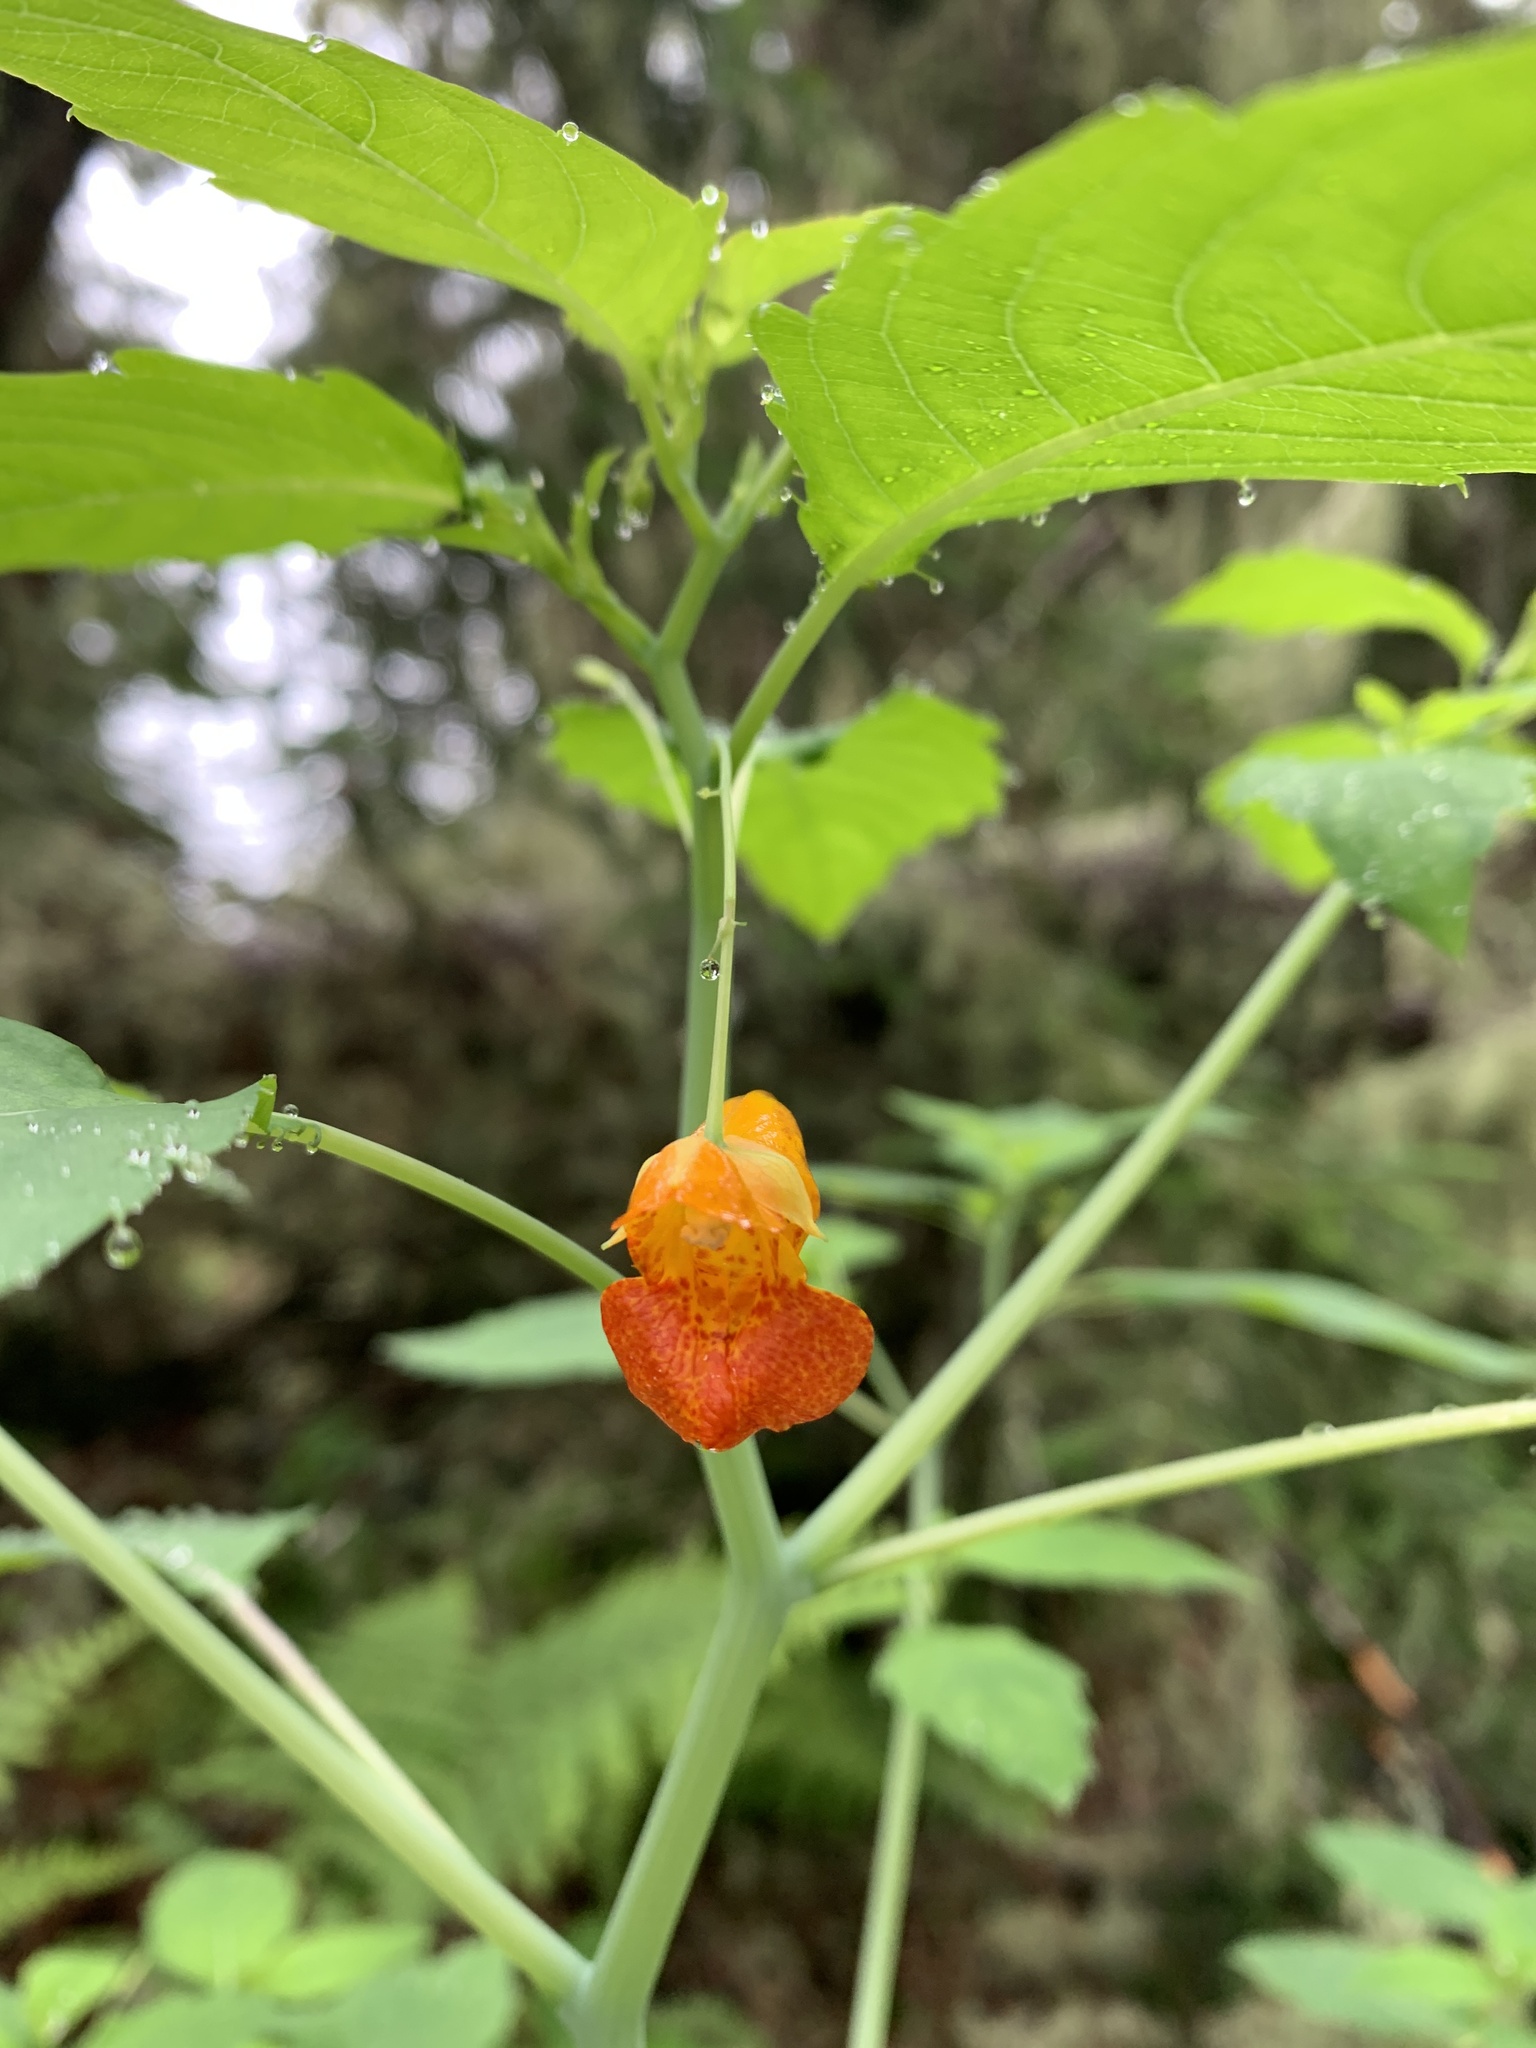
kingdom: Plantae
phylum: Tracheophyta
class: Magnoliopsida
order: Ericales
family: Balsaminaceae
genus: Impatiens
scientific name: Impatiens capensis
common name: Orange balsam
